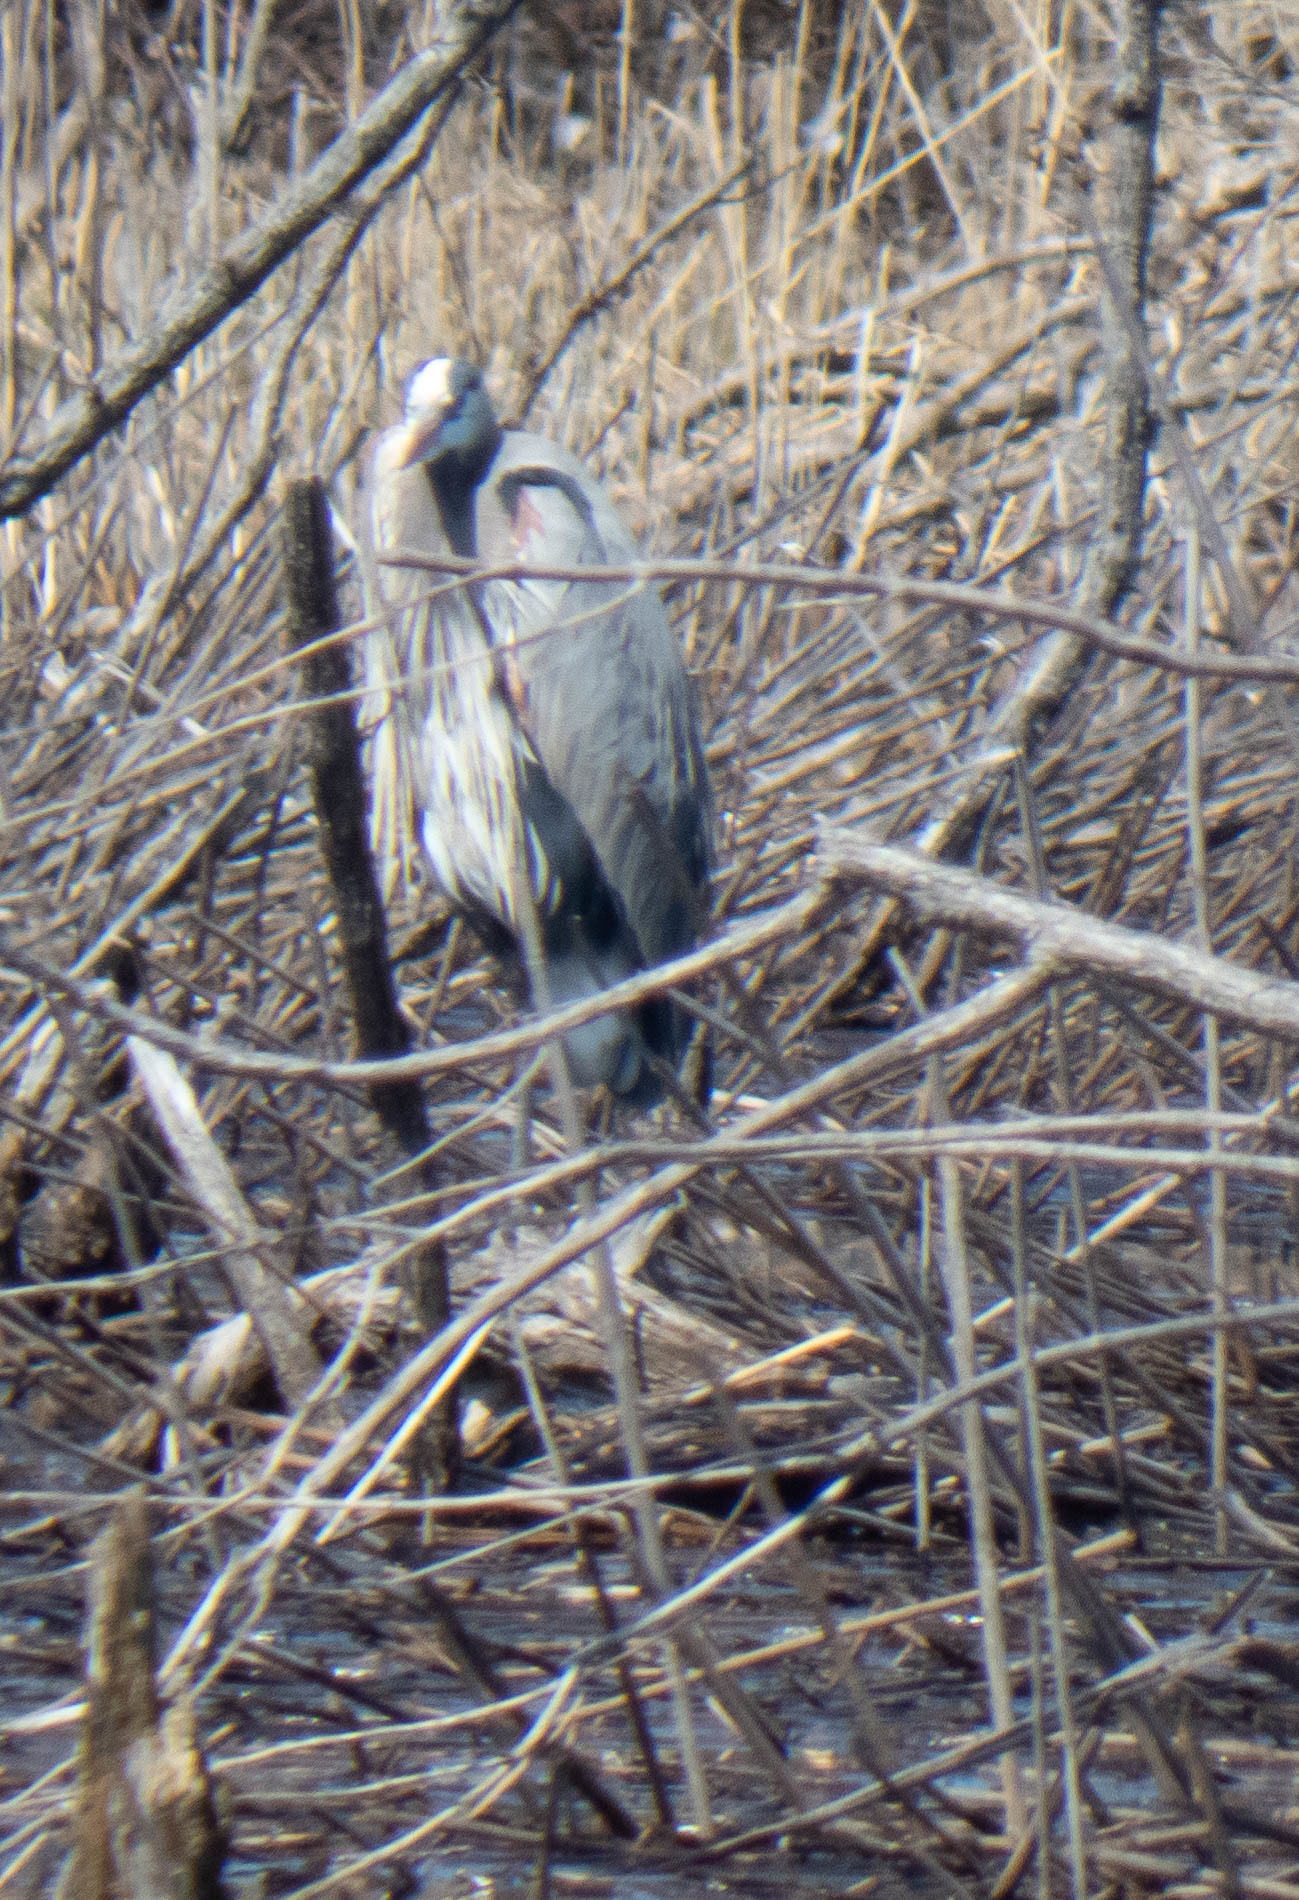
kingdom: Animalia
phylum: Chordata
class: Aves
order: Pelecaniformes
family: Ardeidae
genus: Ardea
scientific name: Ardea herodias
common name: Great blue heron
